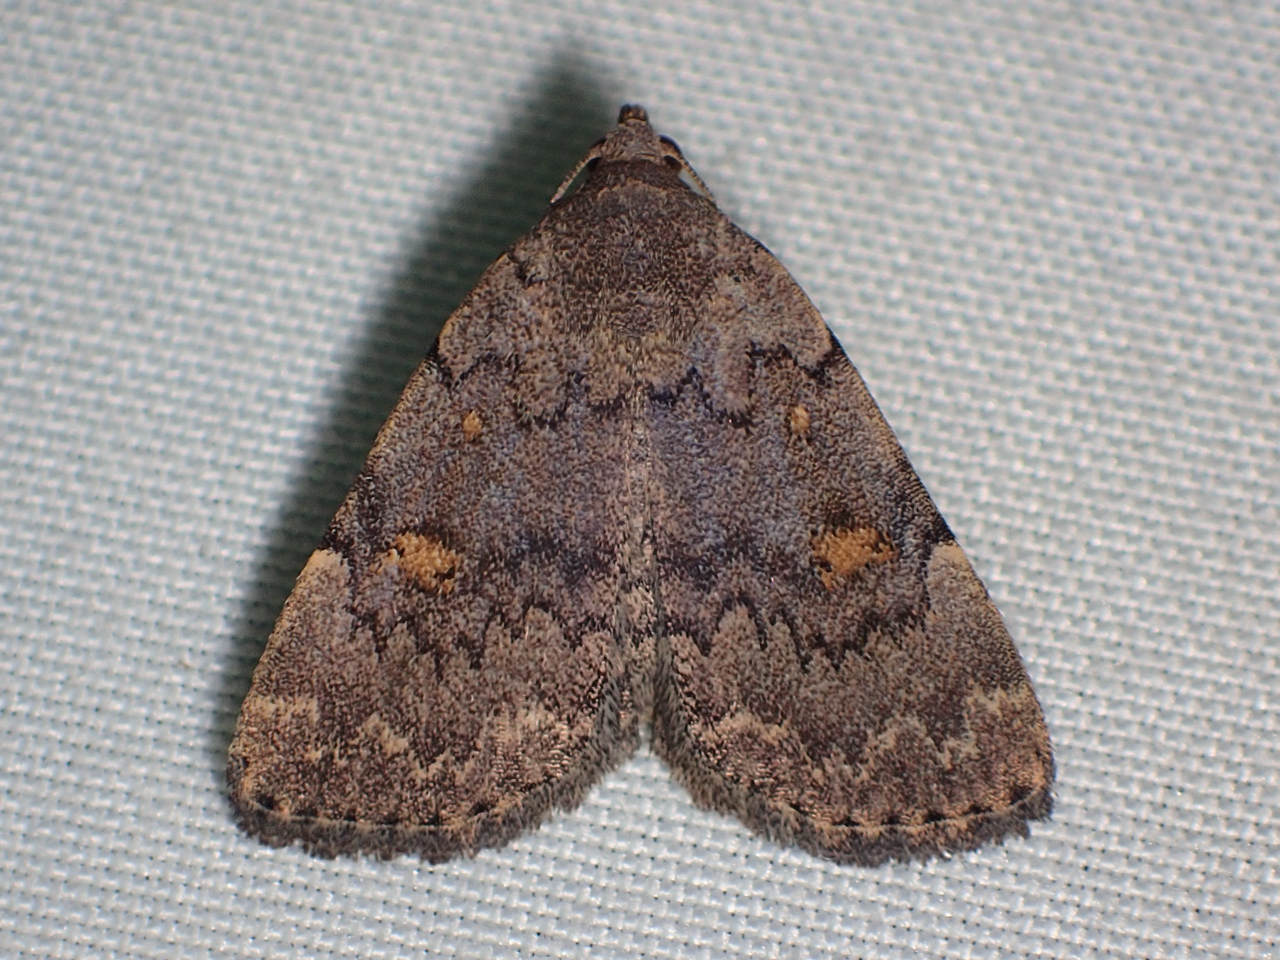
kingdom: Animalia
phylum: Arthropoda
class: Insecta
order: Lepidoptera
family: Erebidae
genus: Idia
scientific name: Idia aemula
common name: Common idia moth
